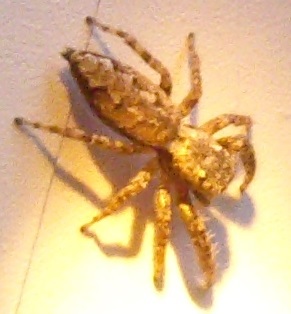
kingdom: Animalia
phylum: Arthropoda
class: Arachnida
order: Araneae
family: Salticidae
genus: Marpissa
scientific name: Marpissa muscosa
